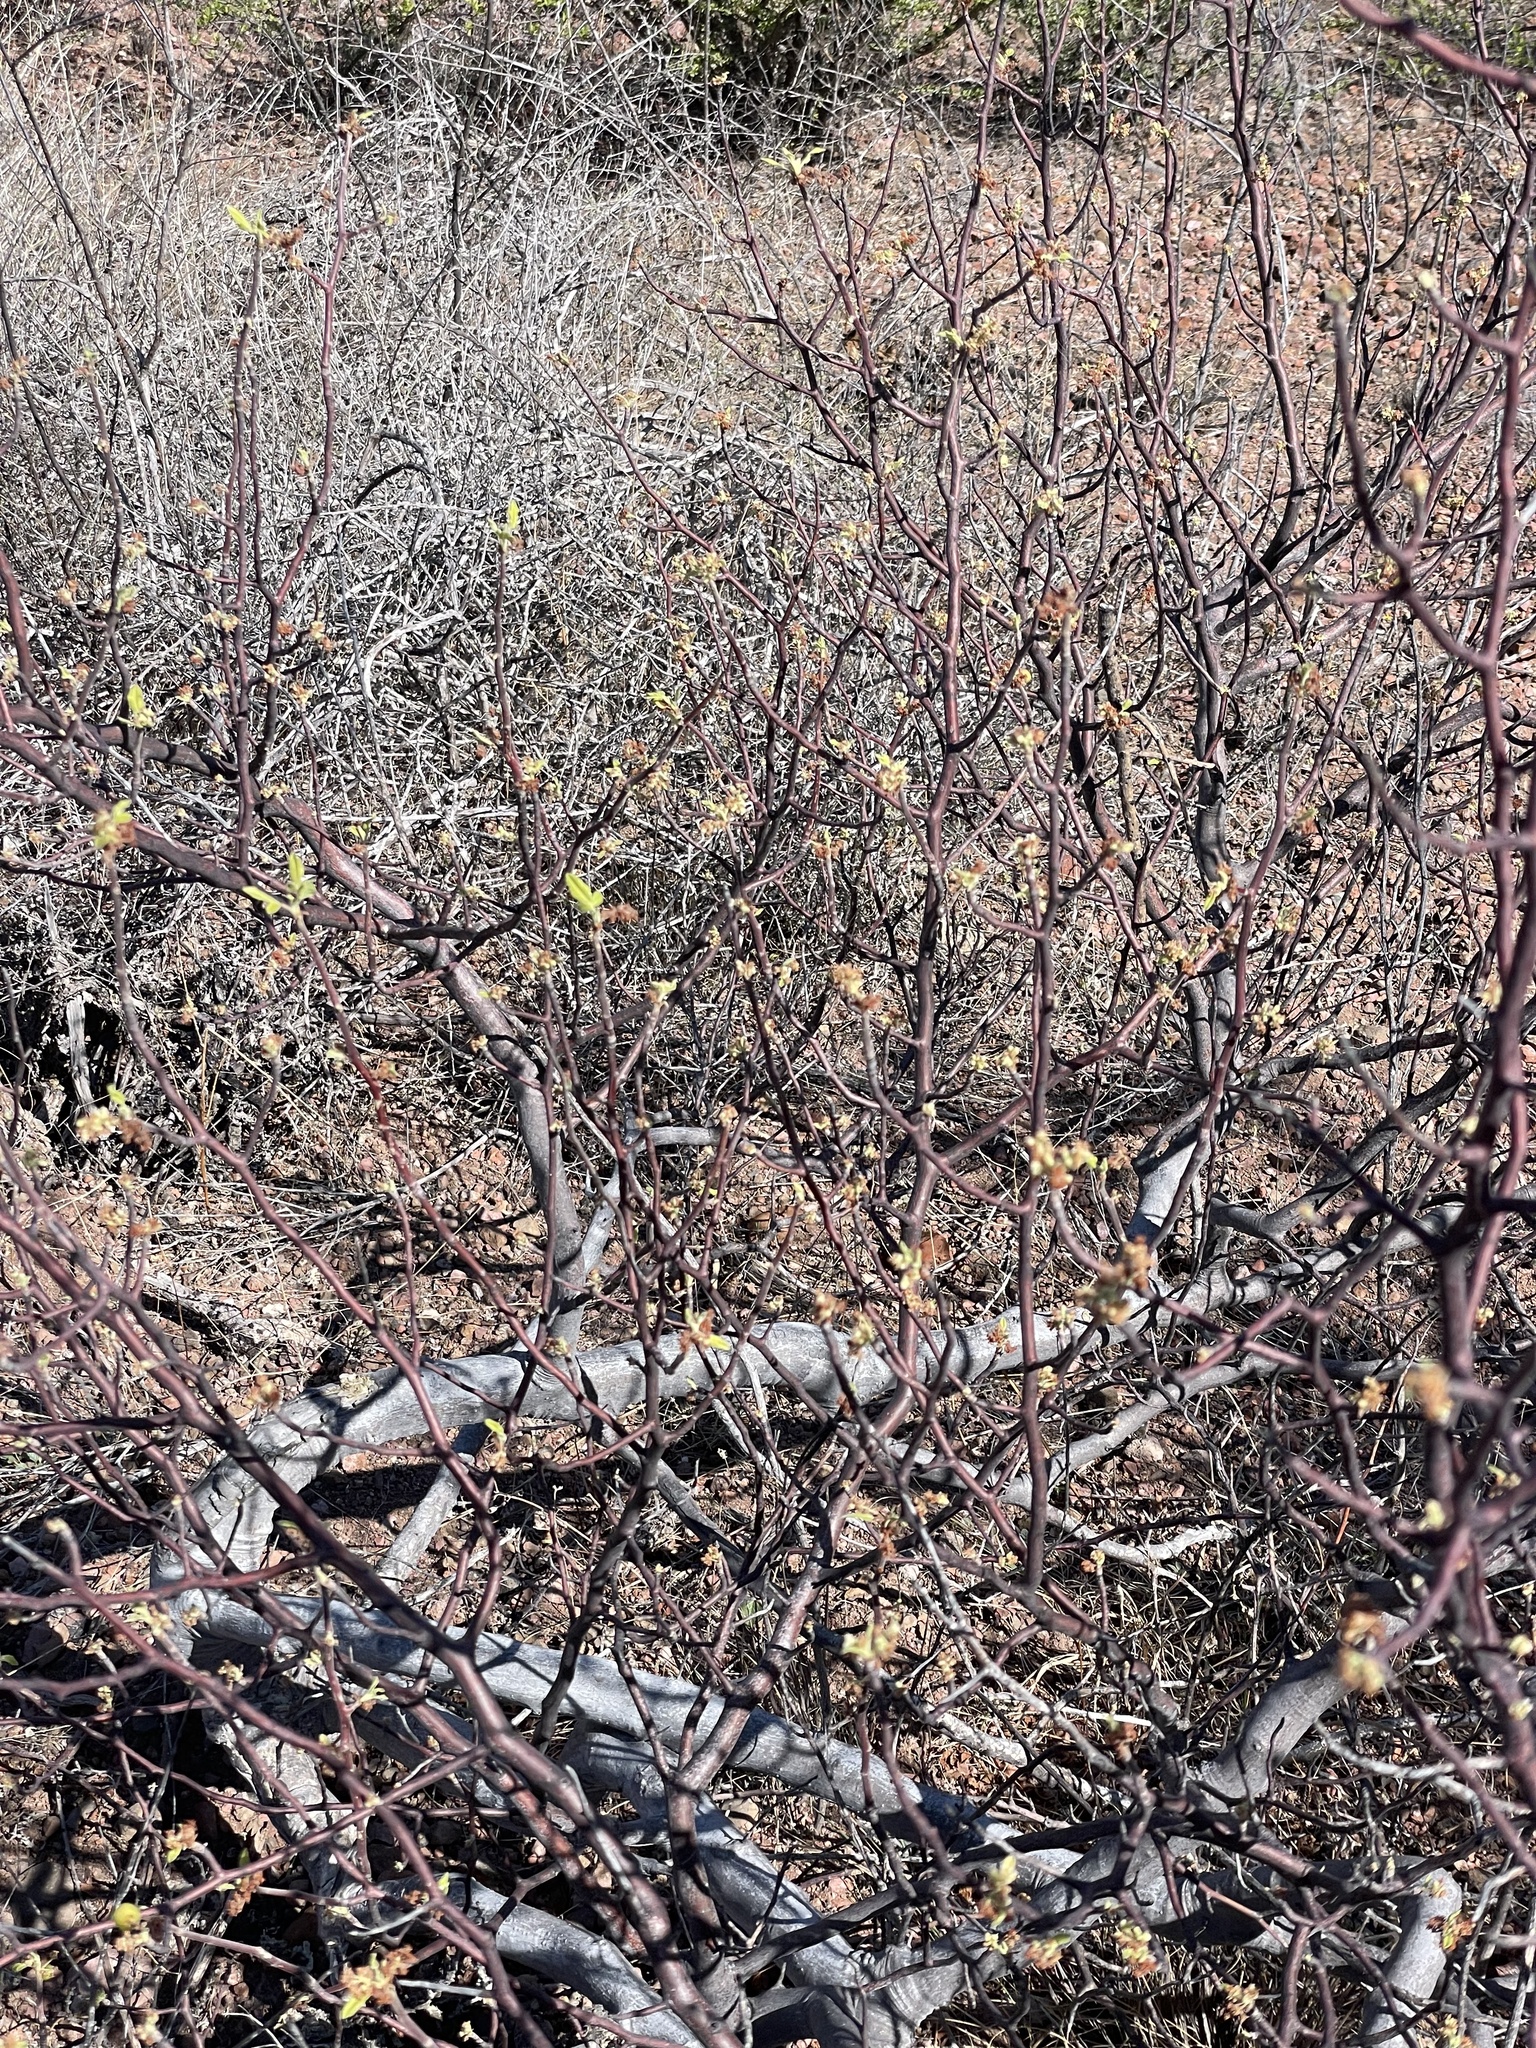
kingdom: Plantae
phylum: Tracheophyta
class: Magnoliopsida
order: Sapindales
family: Burseraceae
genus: Bursera
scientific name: Bursera hindsiana
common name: Red elephant tree
